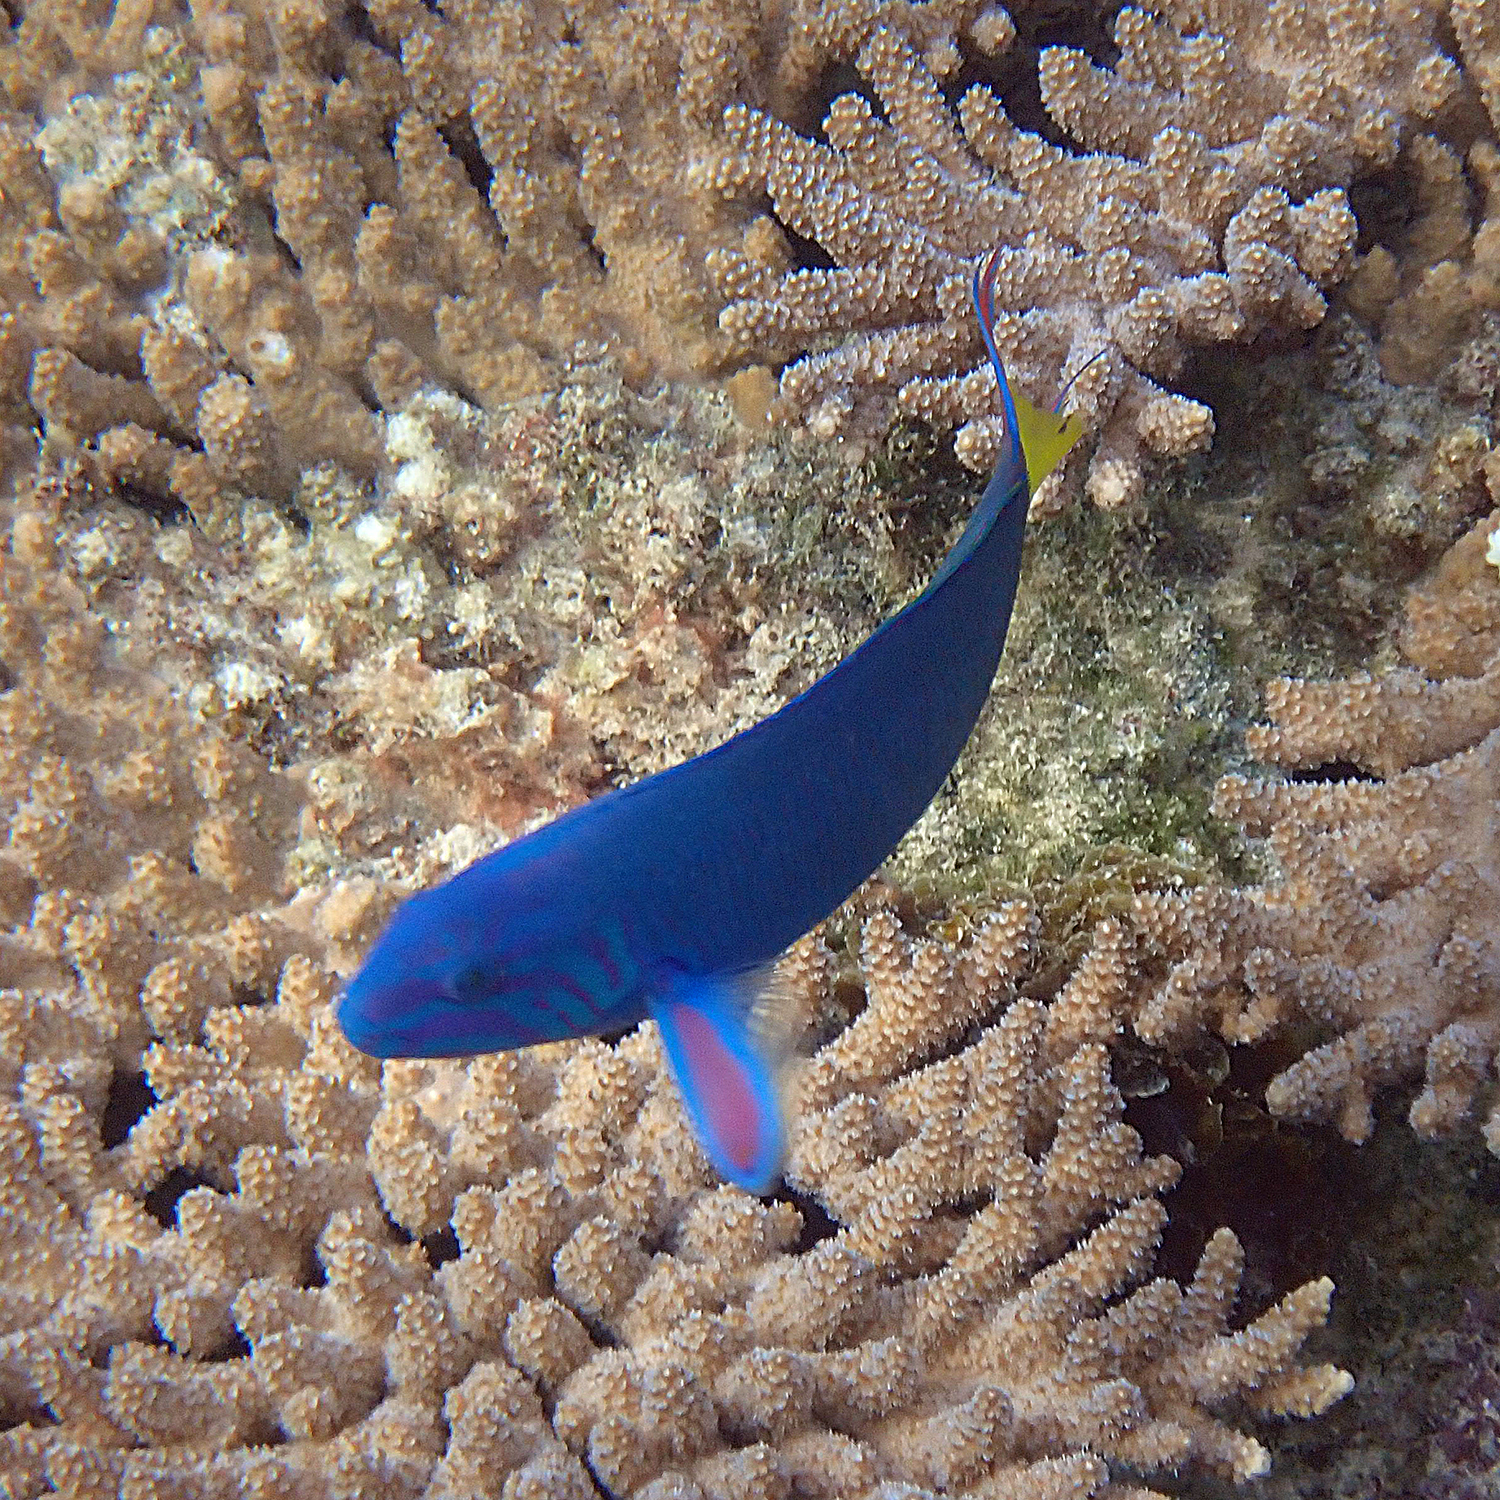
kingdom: Animalia
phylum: Chordata
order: Perciformes
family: Labridae
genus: Thalassoma
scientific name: Thalassoma lunare
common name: Blue wrasse
